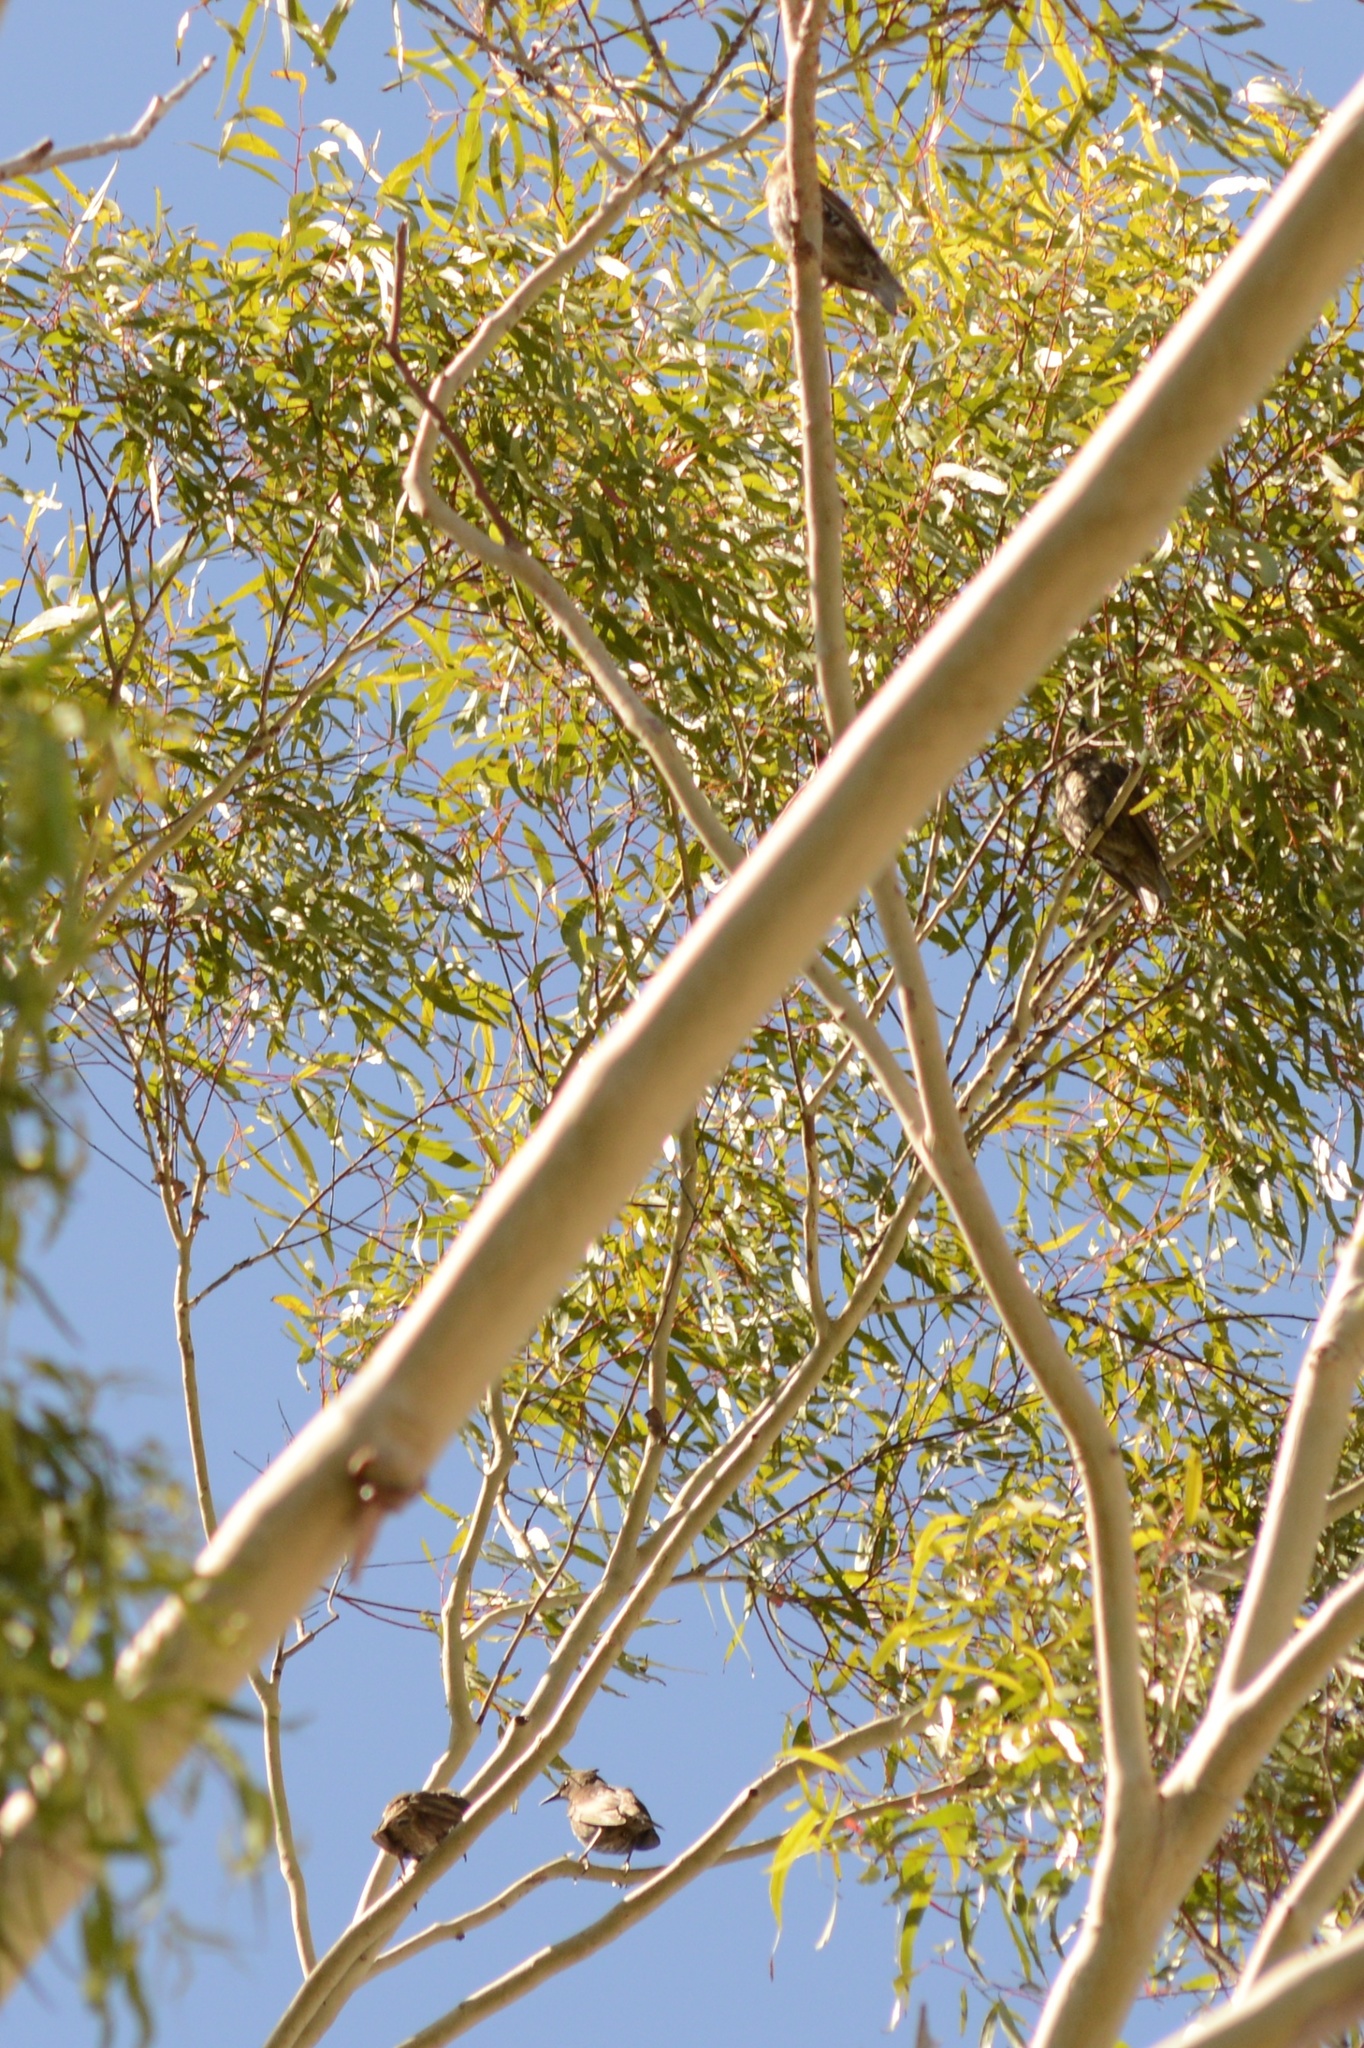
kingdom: Animalia
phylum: Chordata
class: Aves
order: Passeriformes
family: Sturnidae
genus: Sturnus
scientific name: Sturnus vulgaris
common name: Common starling
